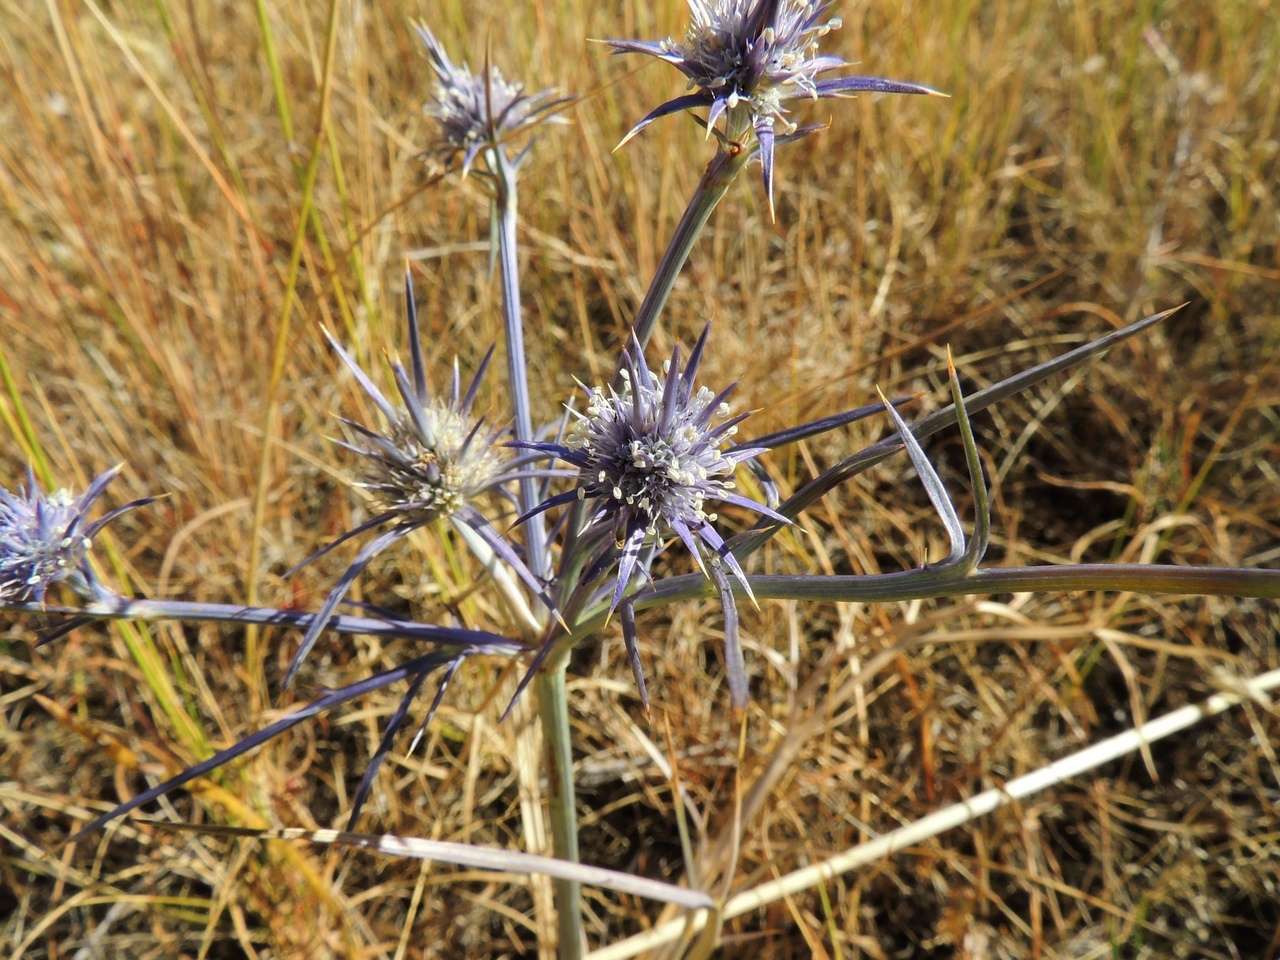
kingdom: Plantae
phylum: Tracheophyta
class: Magnoliopsida
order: Apiales
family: Apiaceae
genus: Eryngium
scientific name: Eryngium ovinum
